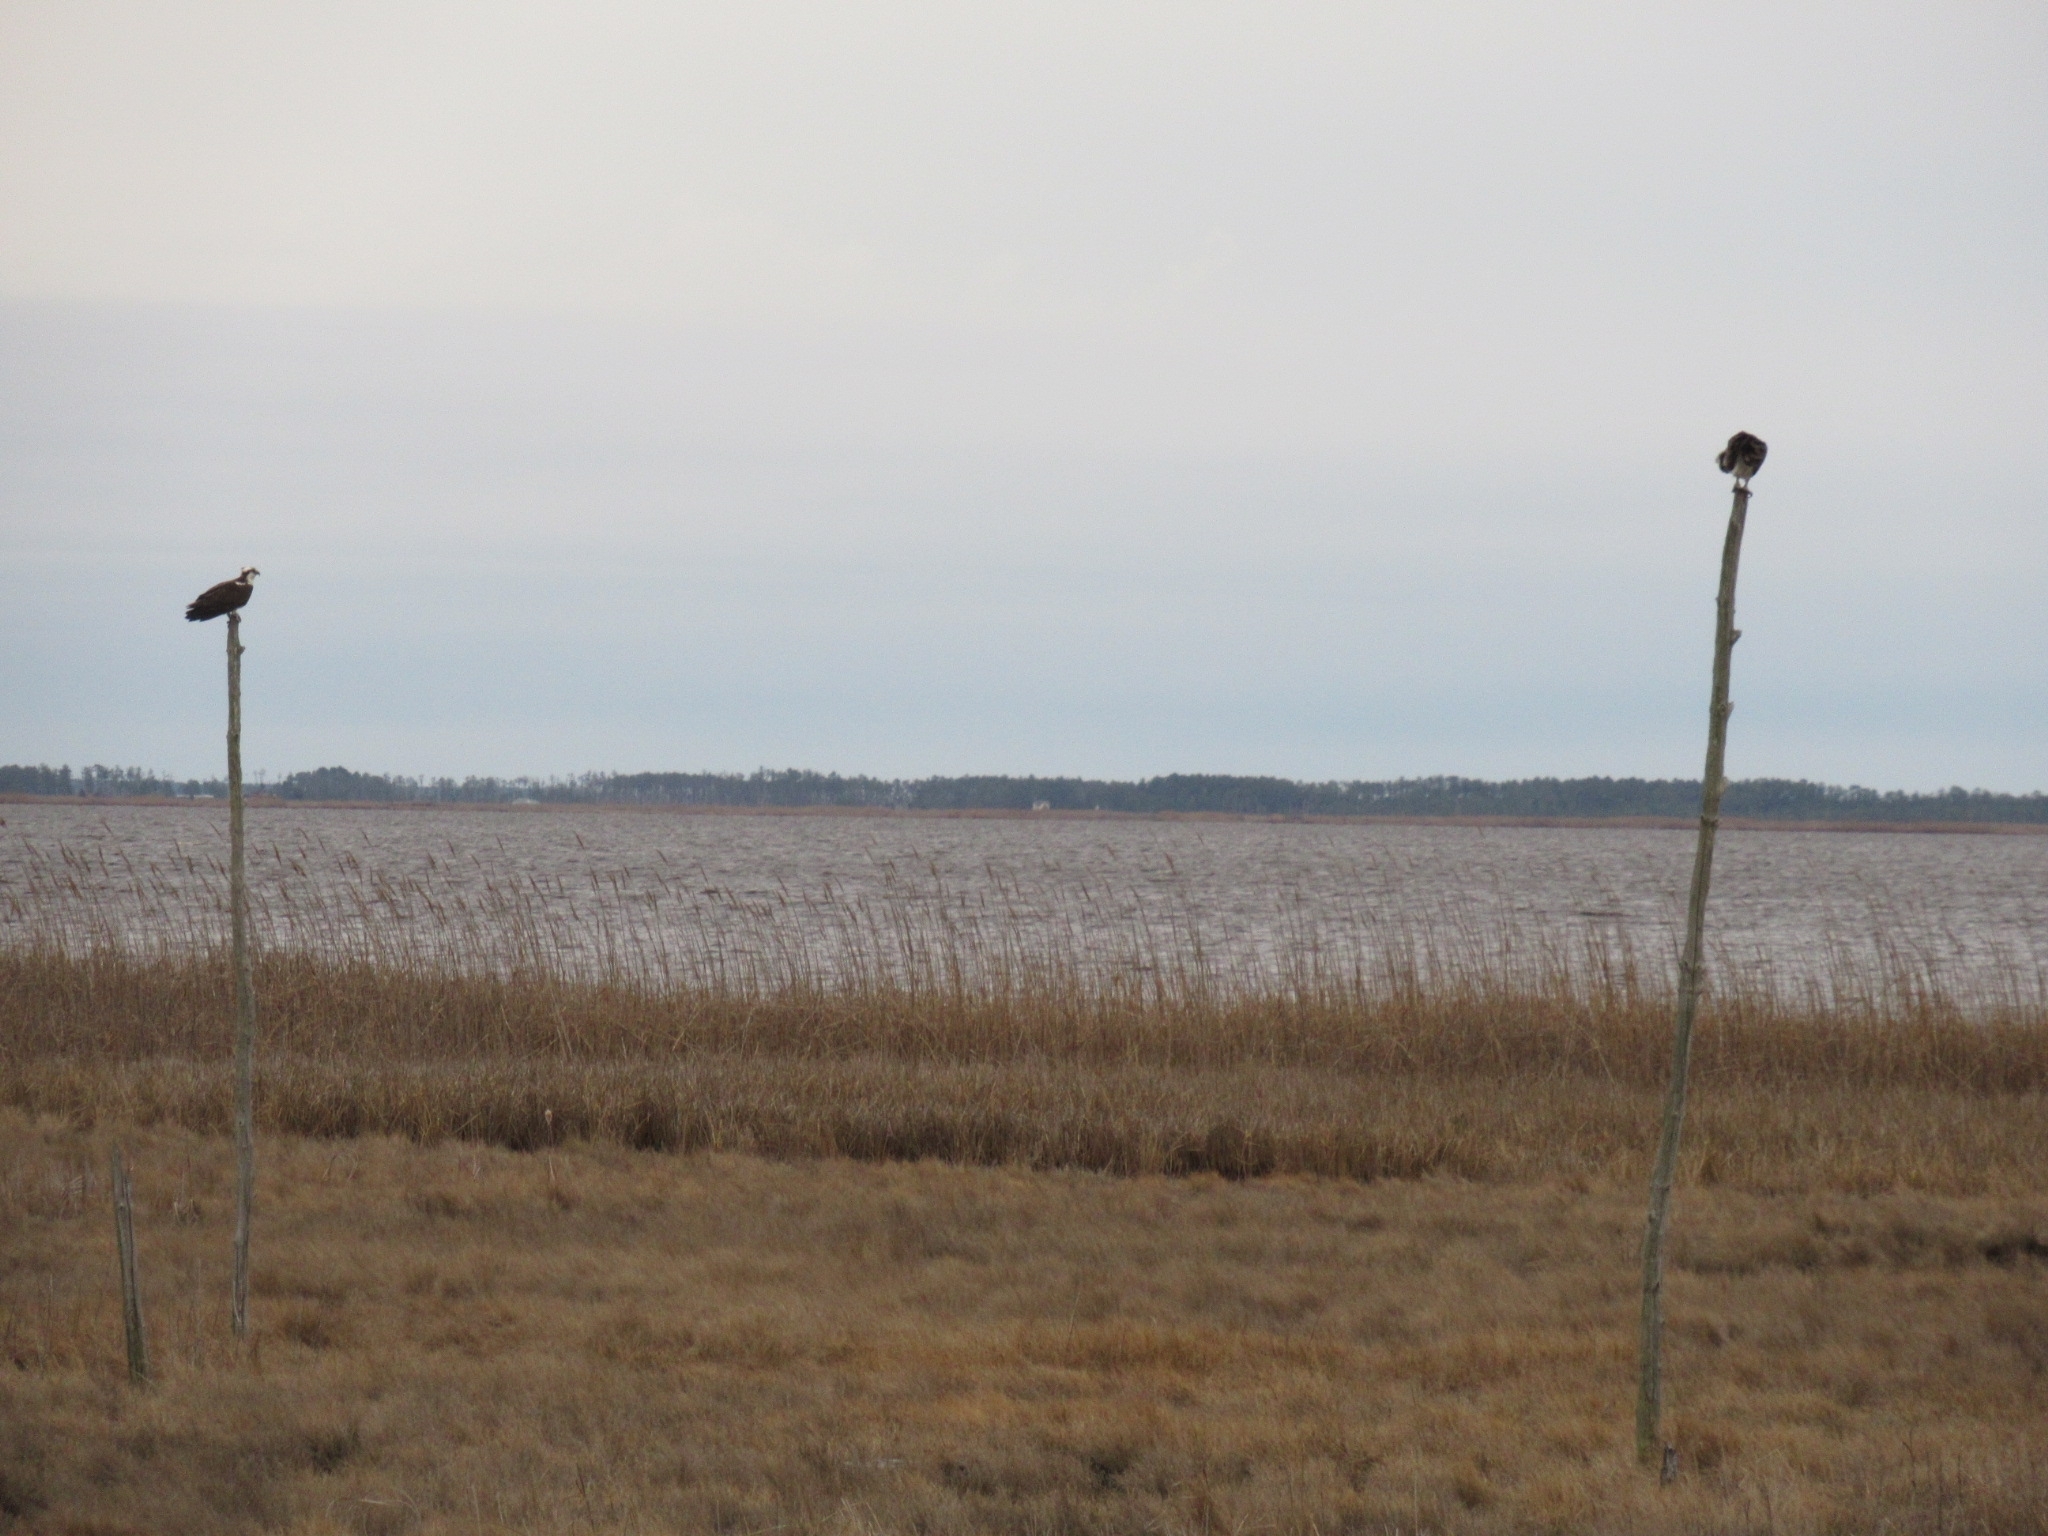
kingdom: Animalia
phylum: Chordata
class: Aves
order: Accipitriformes
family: Pandionidae
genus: Pandion
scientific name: Pandion haliaetus
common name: Osprey
